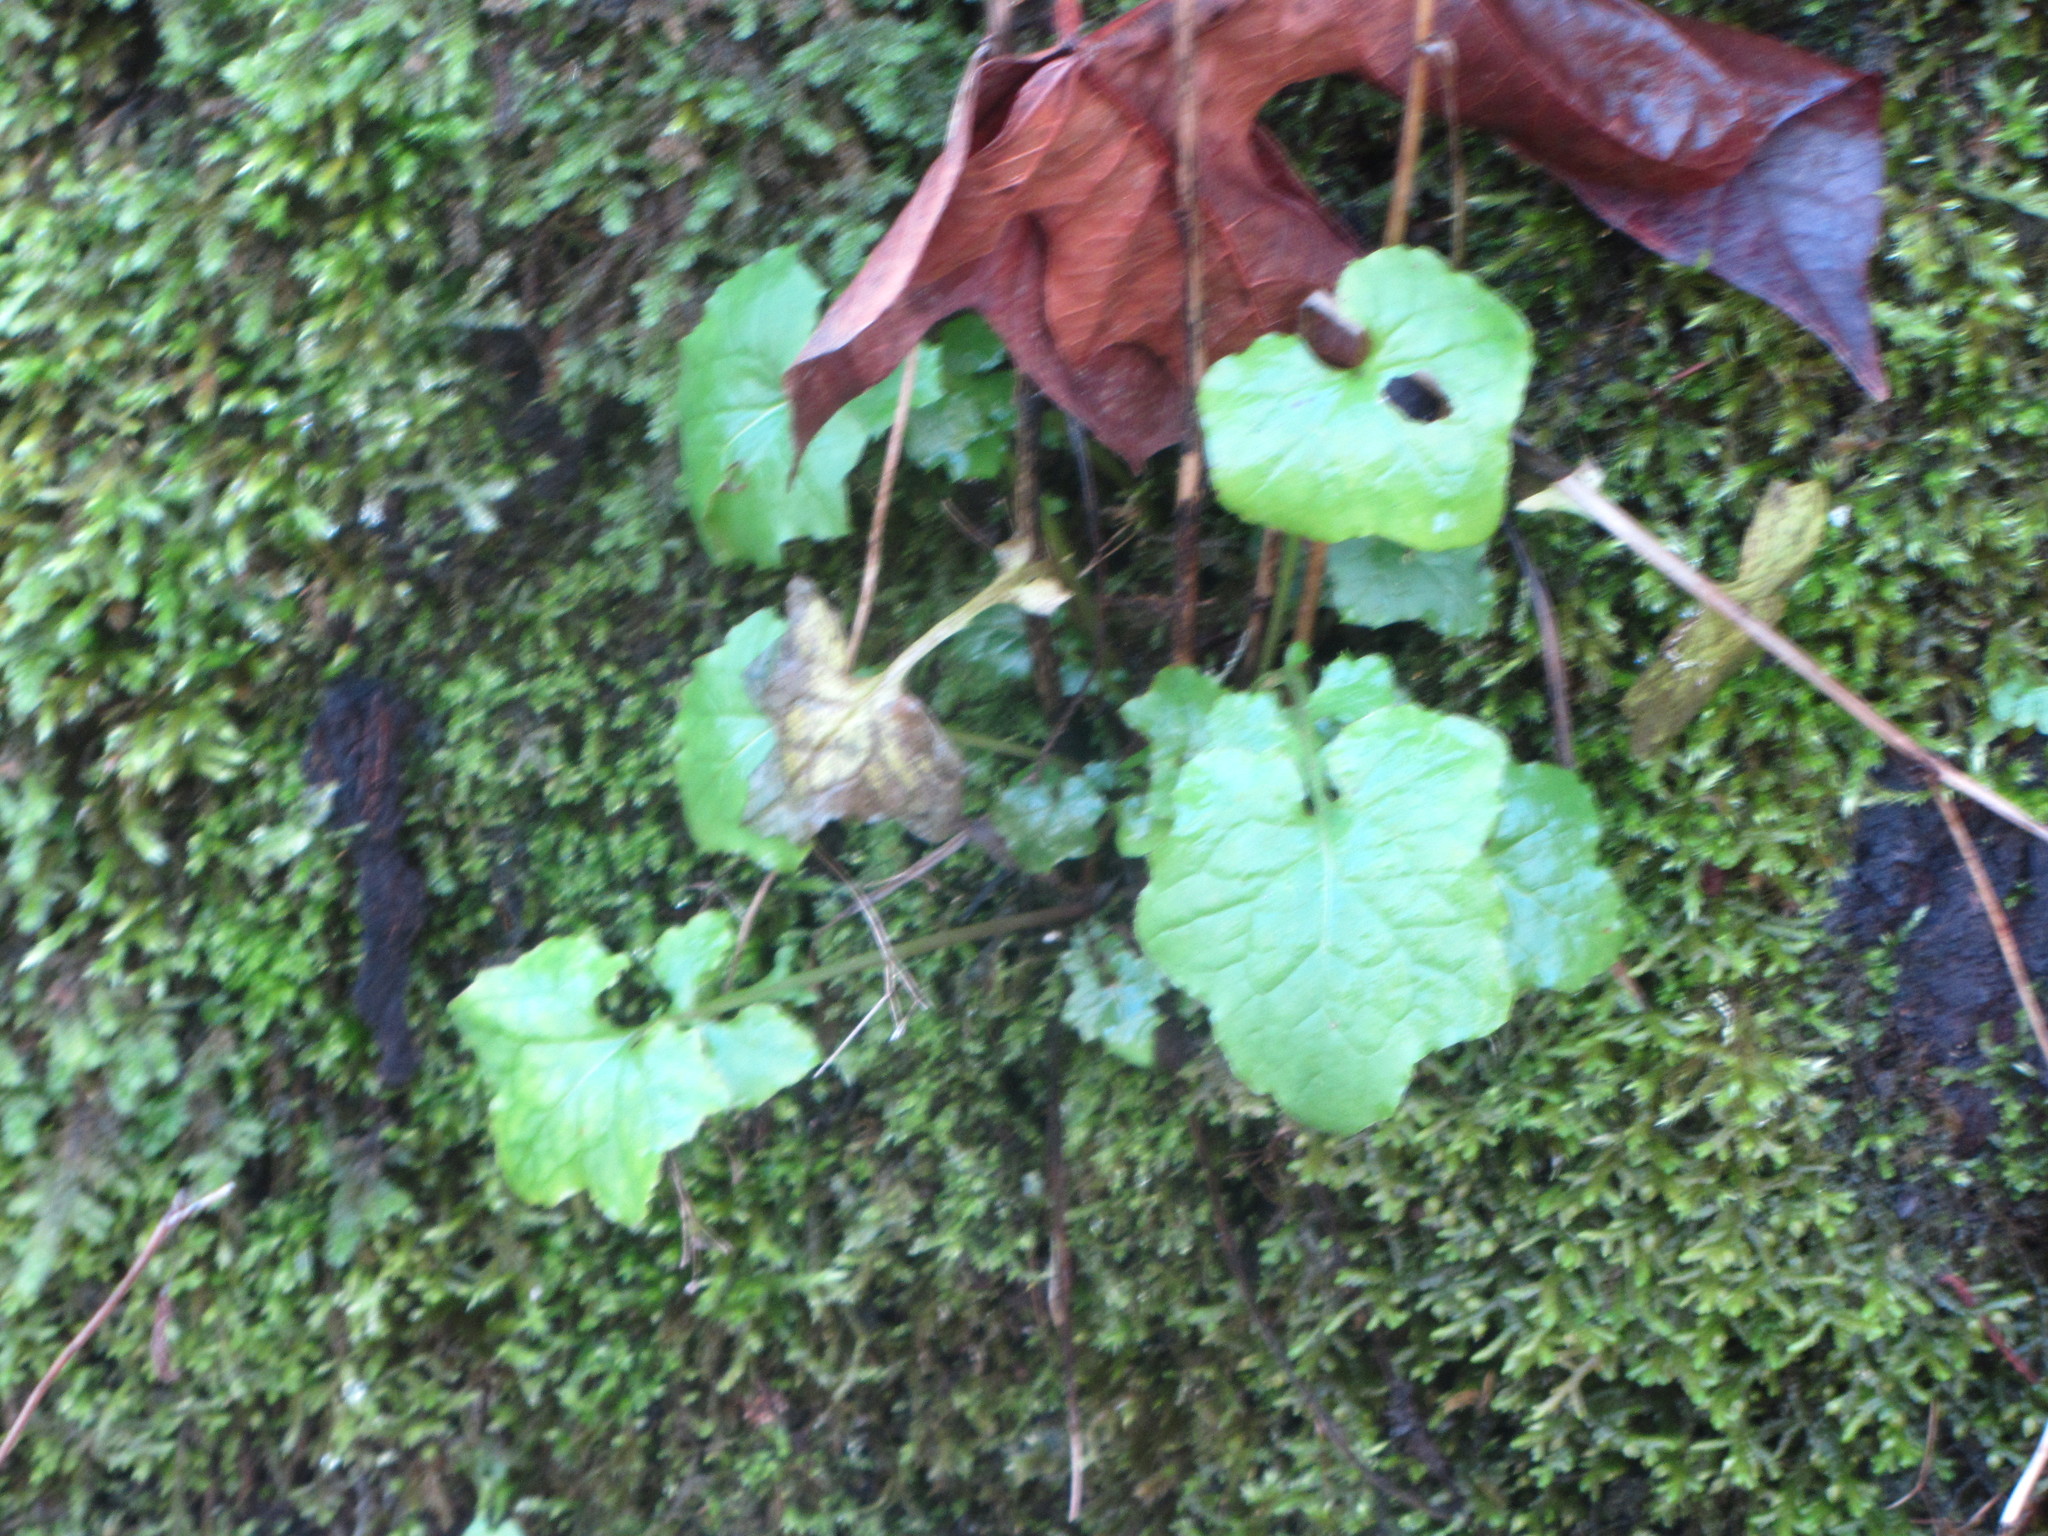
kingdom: Plantae
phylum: Tracheophyta
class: Magnoliopsida
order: Asterales
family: Asteraceae
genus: Mycelis
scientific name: Mycelis muralis
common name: Wall lettuce
